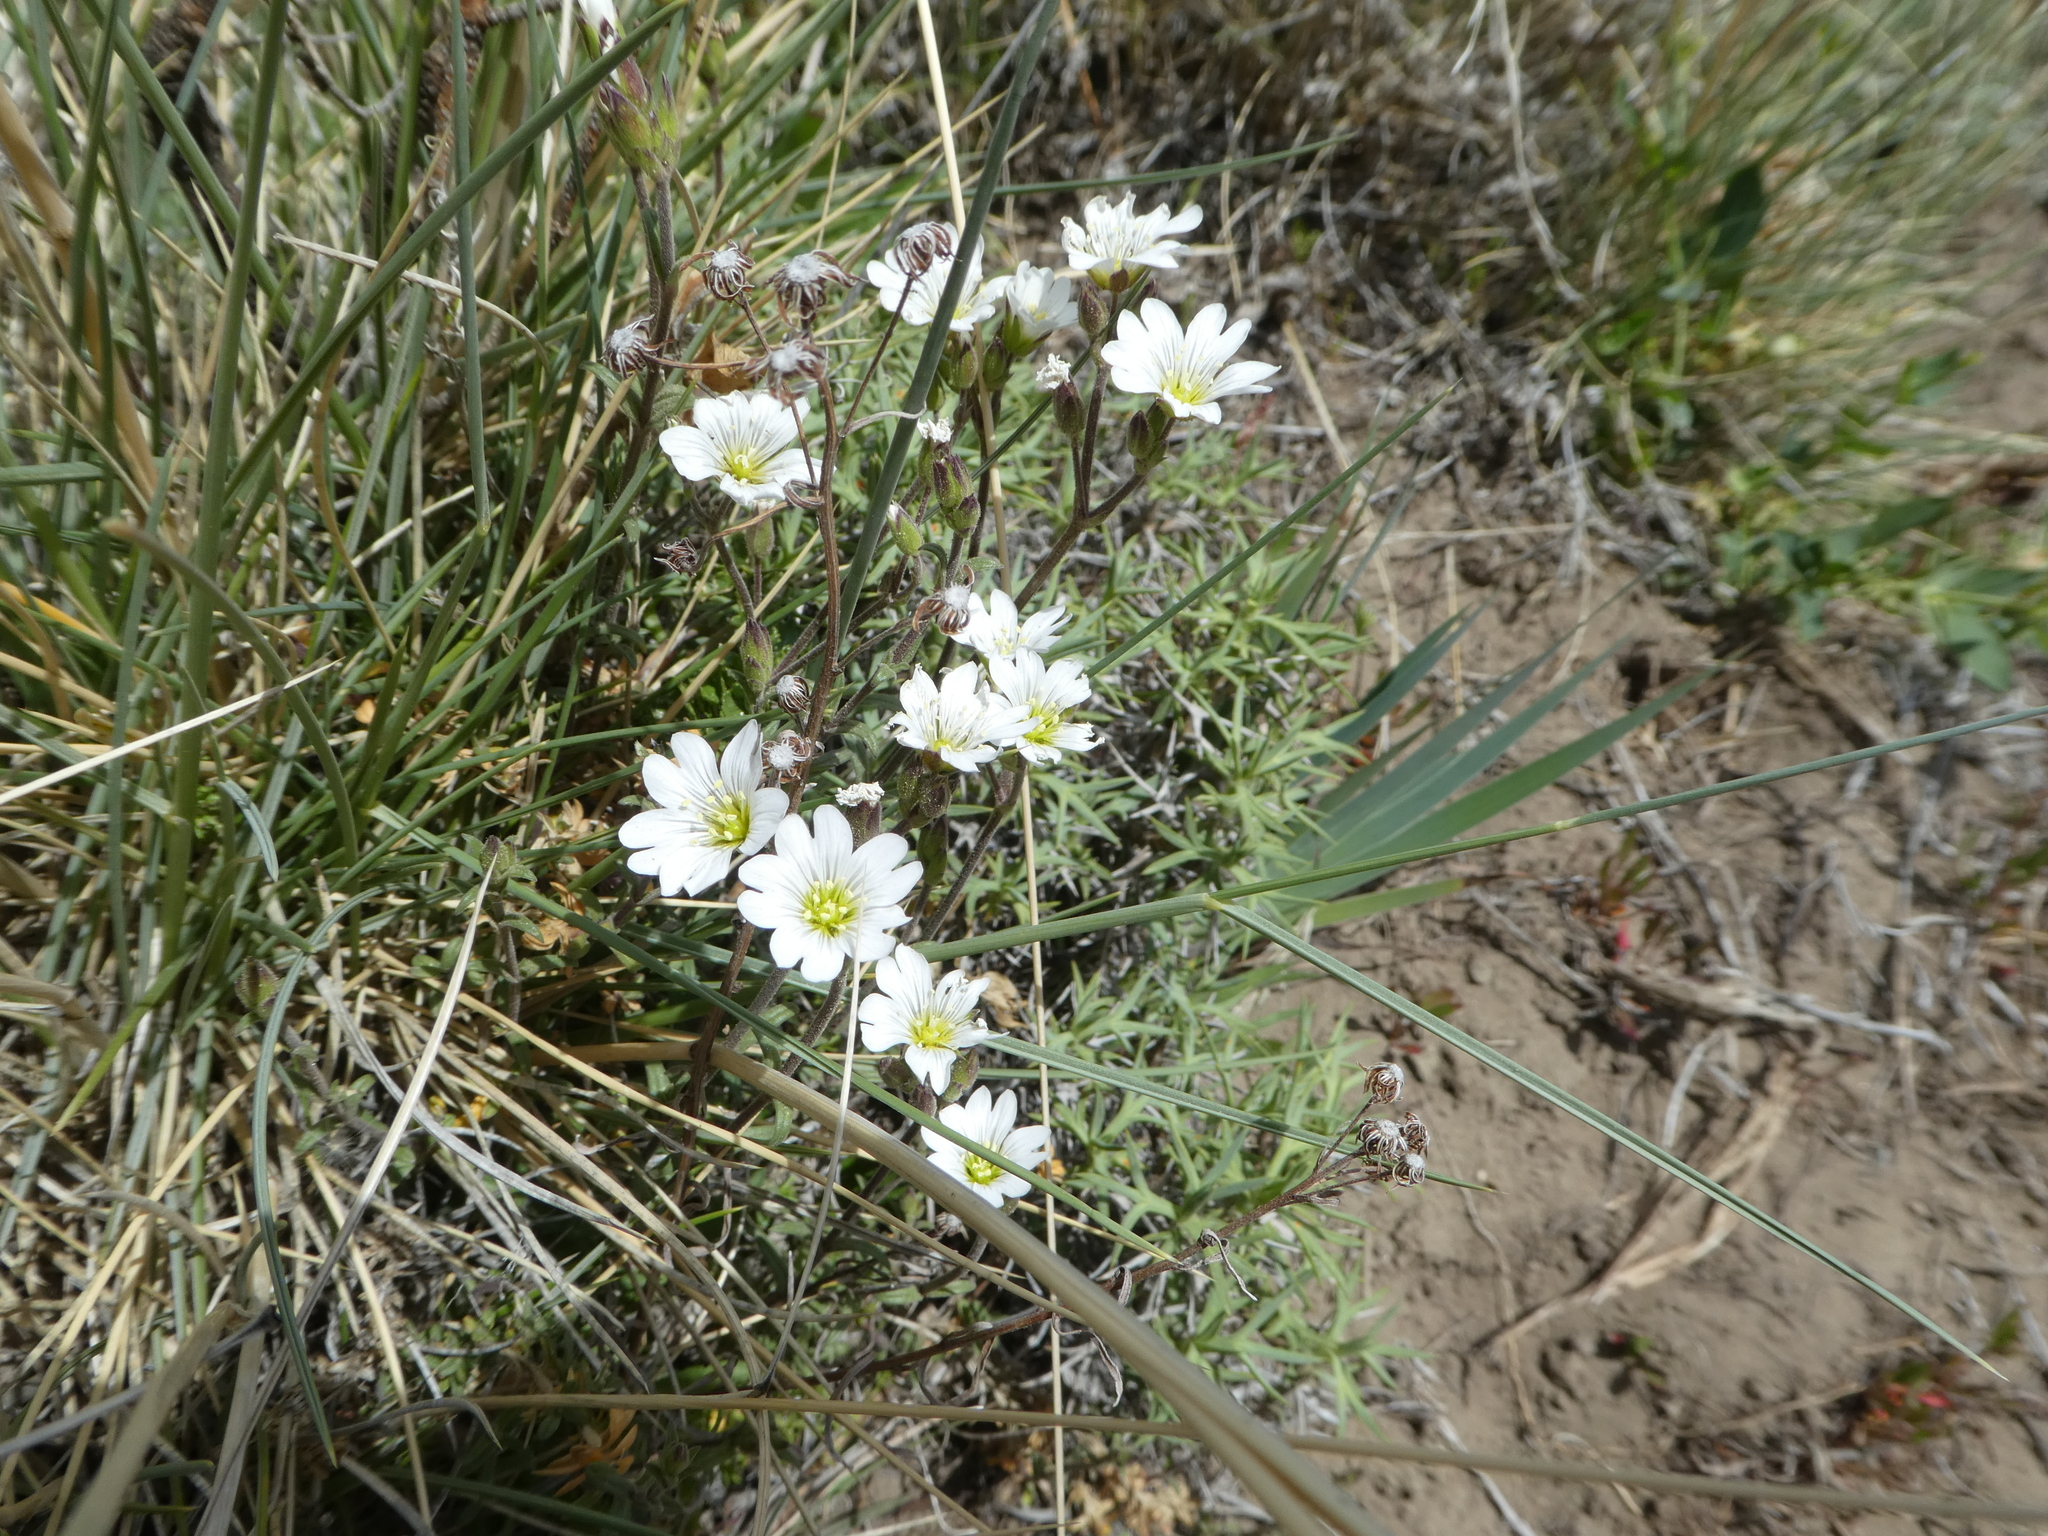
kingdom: Plantae
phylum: Tracheophyta
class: Magnoliopsida
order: Caryophyllales
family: Caryophyllaceae
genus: Cerastium
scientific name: Cerastium arvense
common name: Field mouse-ear
